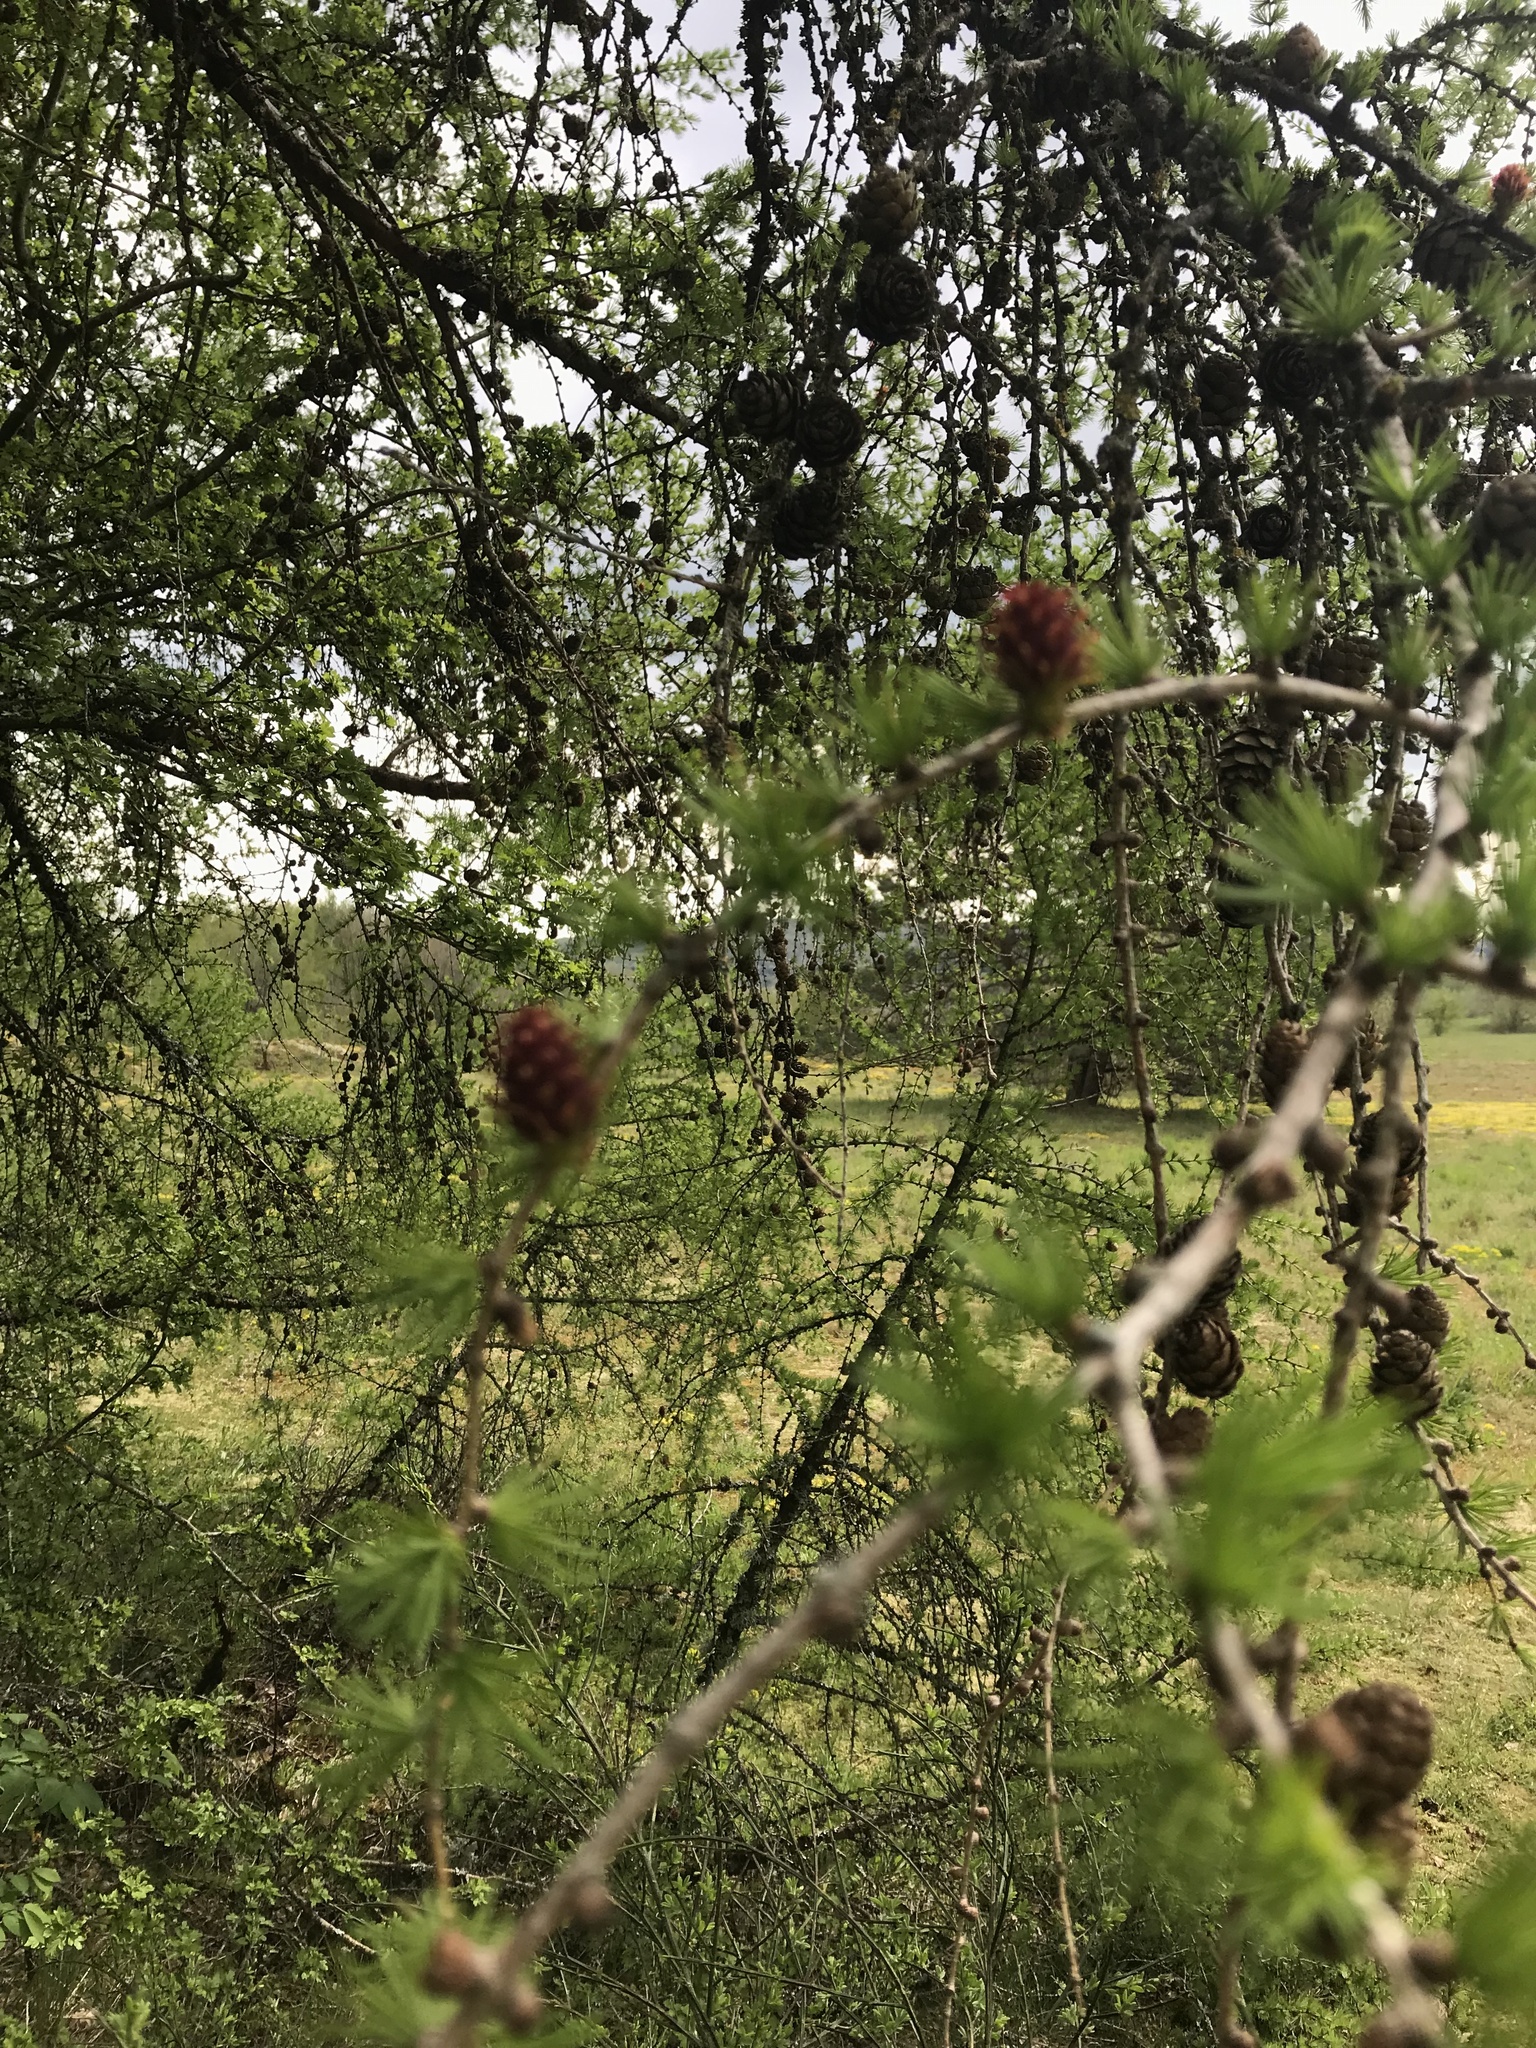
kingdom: Plantae
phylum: Tracheophyta
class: Pinopsida
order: Pinales
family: Pinaceae
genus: Larix
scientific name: Larix decidua
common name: European larch
